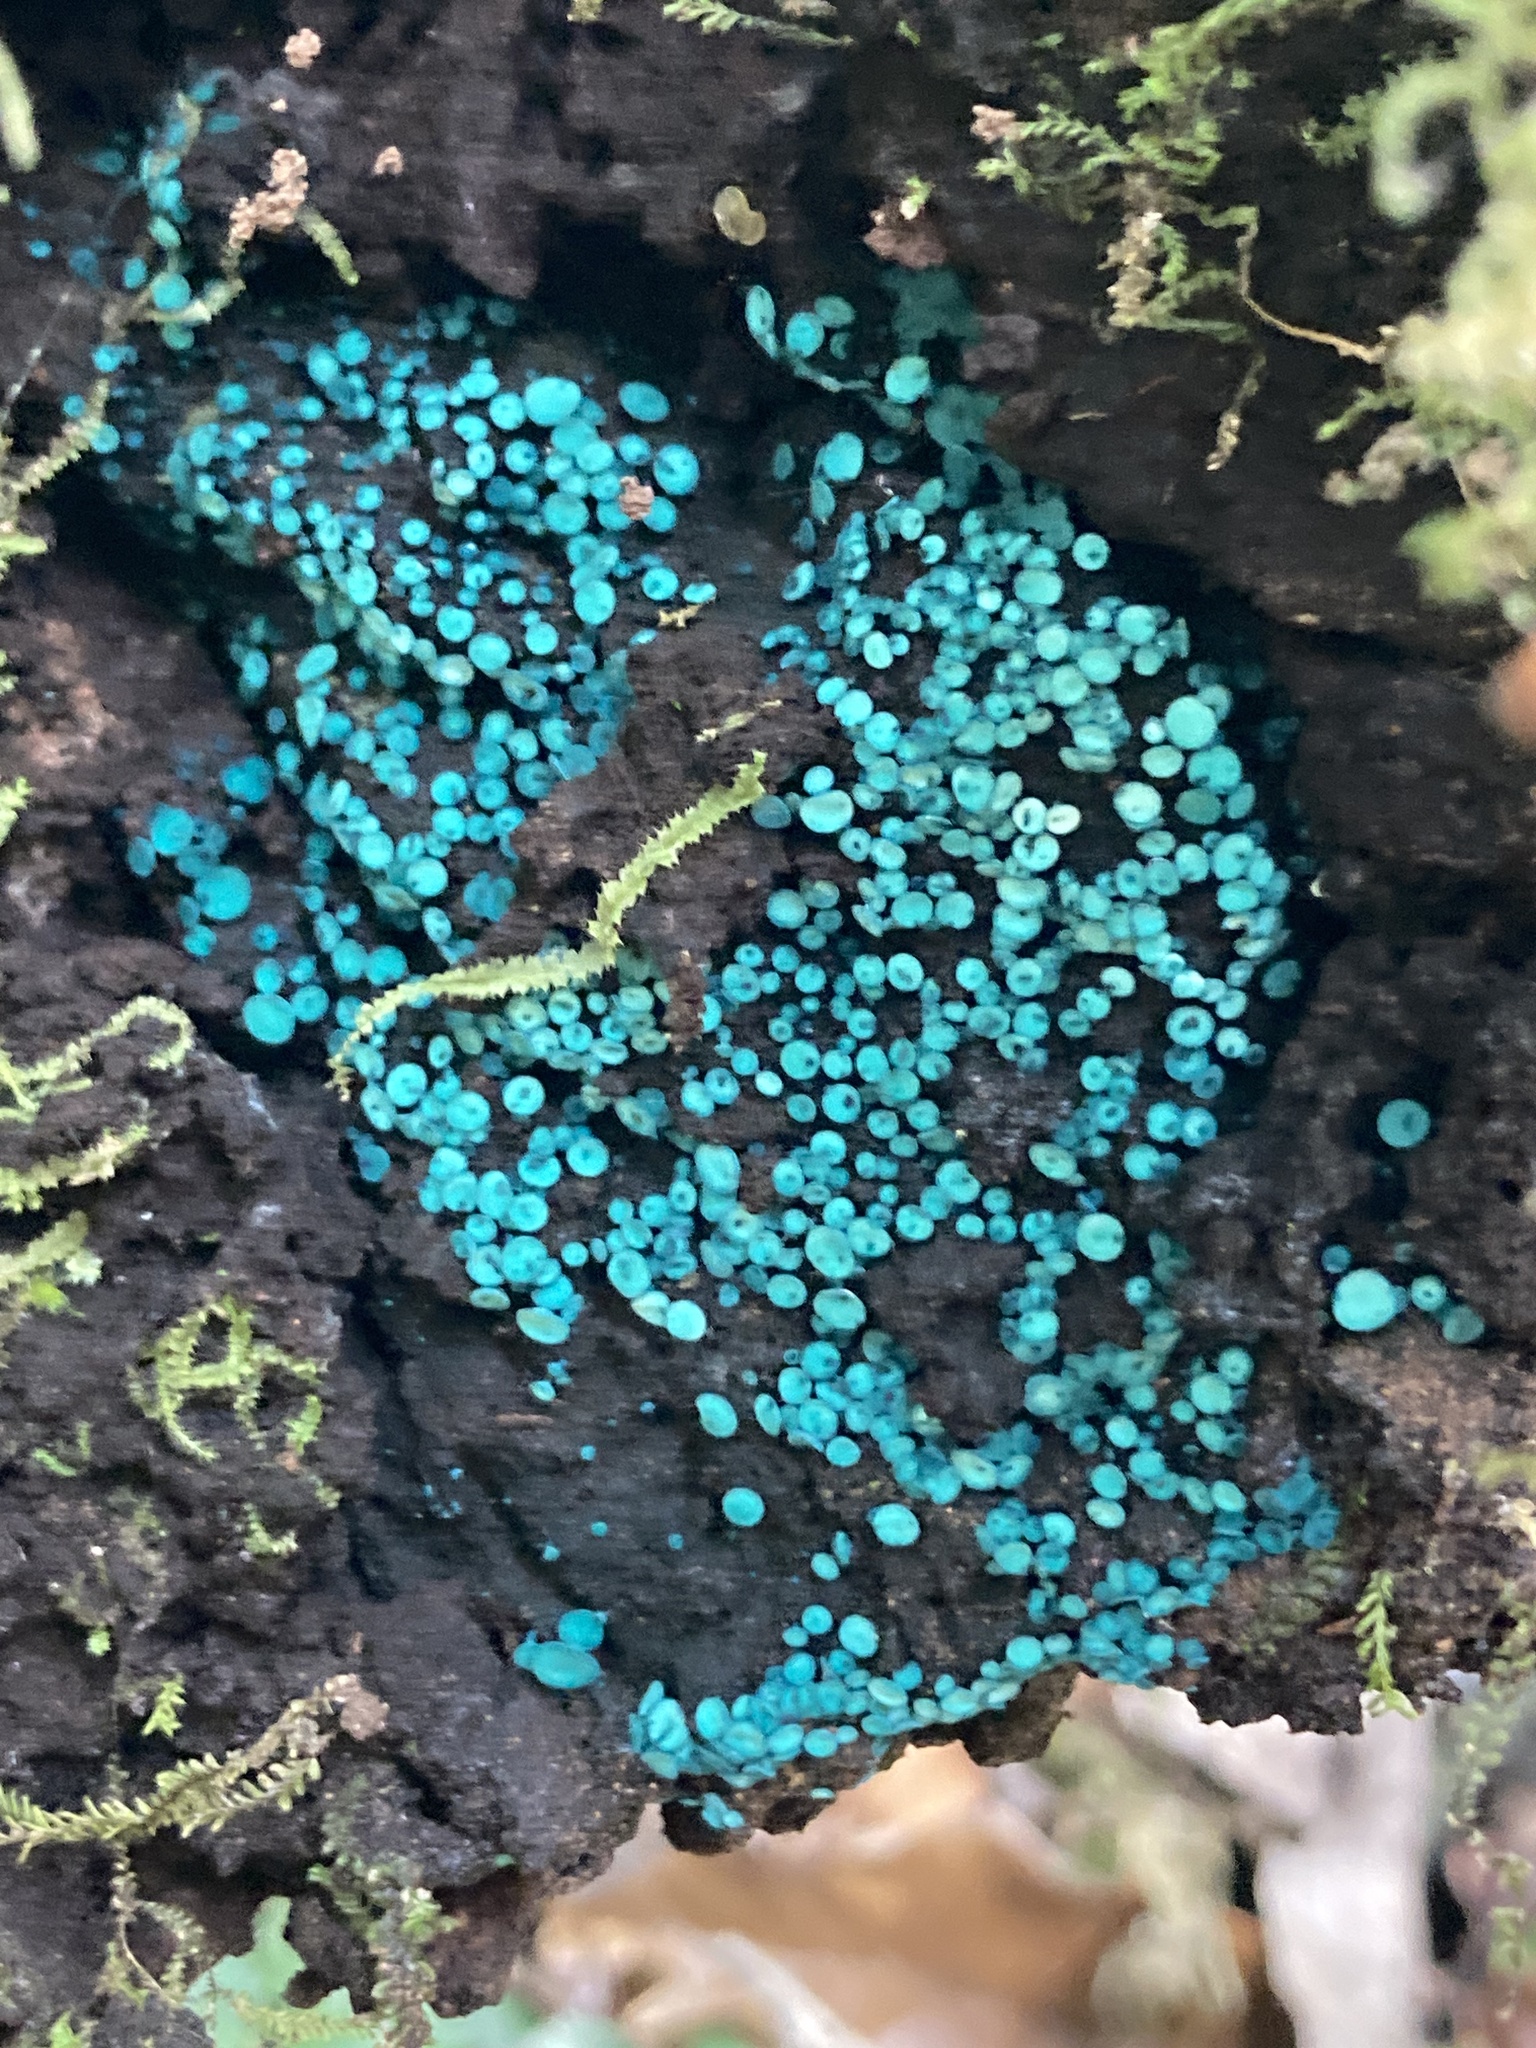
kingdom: Fungi
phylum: Ascomycota
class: Leotiomycetes
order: Helotiales
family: Chlorociboriaceae
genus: Chlorociboria
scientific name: Chlorociboria aeruginosa
